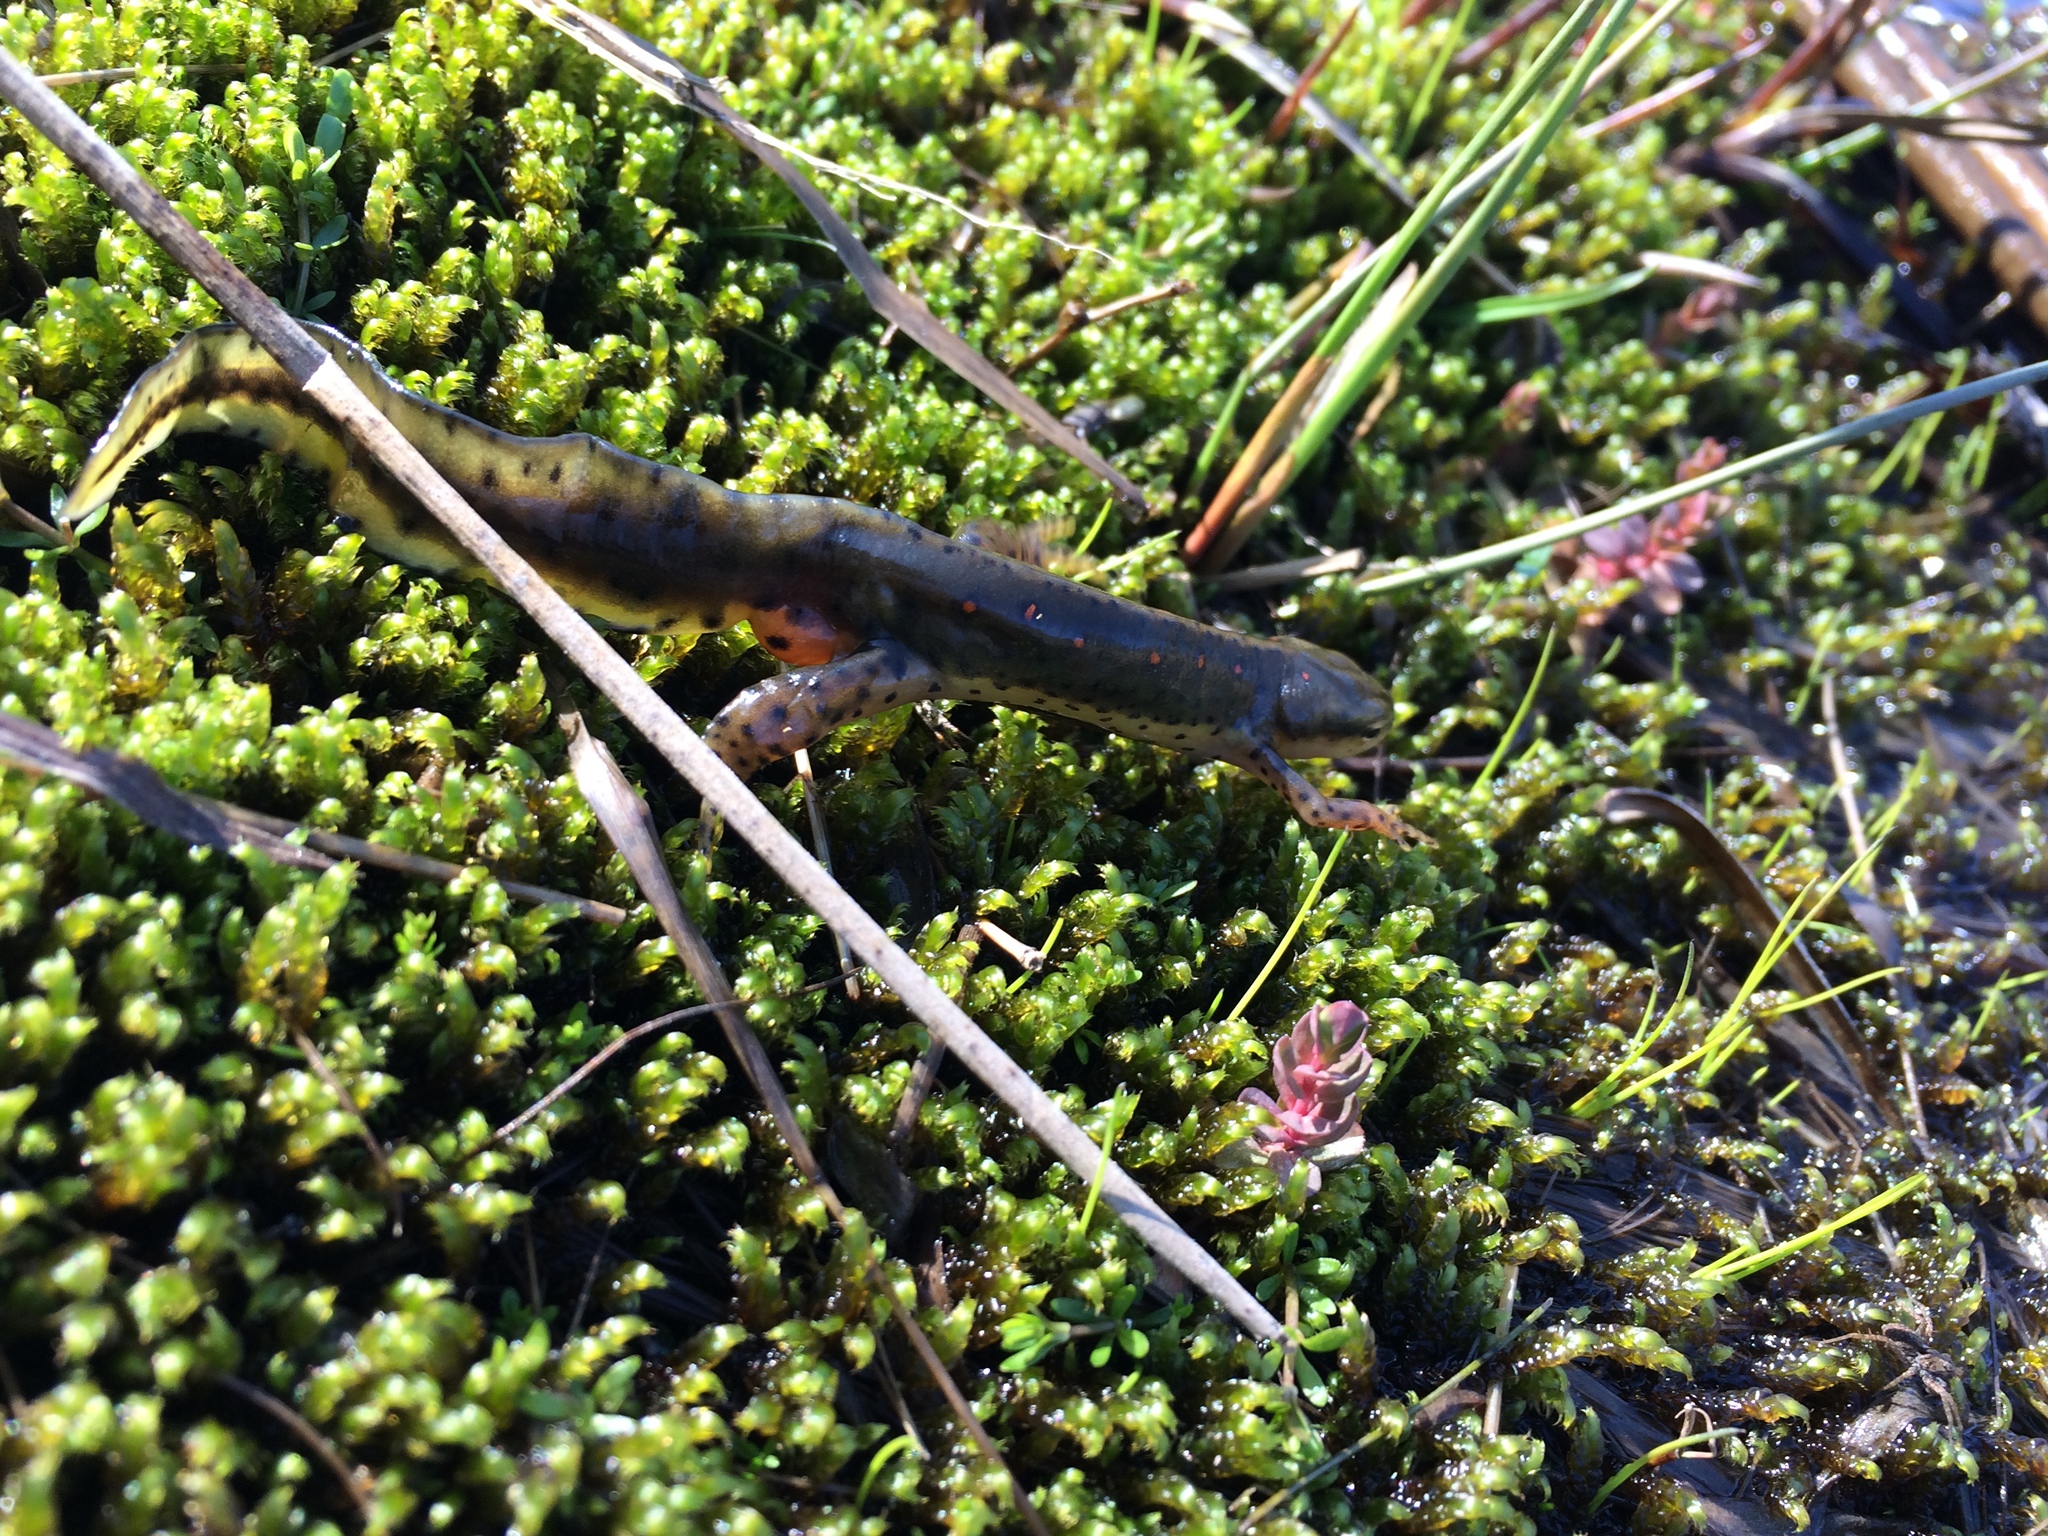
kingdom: Animalia
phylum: Chordata
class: Amphibia
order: Caudata
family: Salamandridae
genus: Notophthalmus
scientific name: Notophthalmus viridescens
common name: Eastern newt
